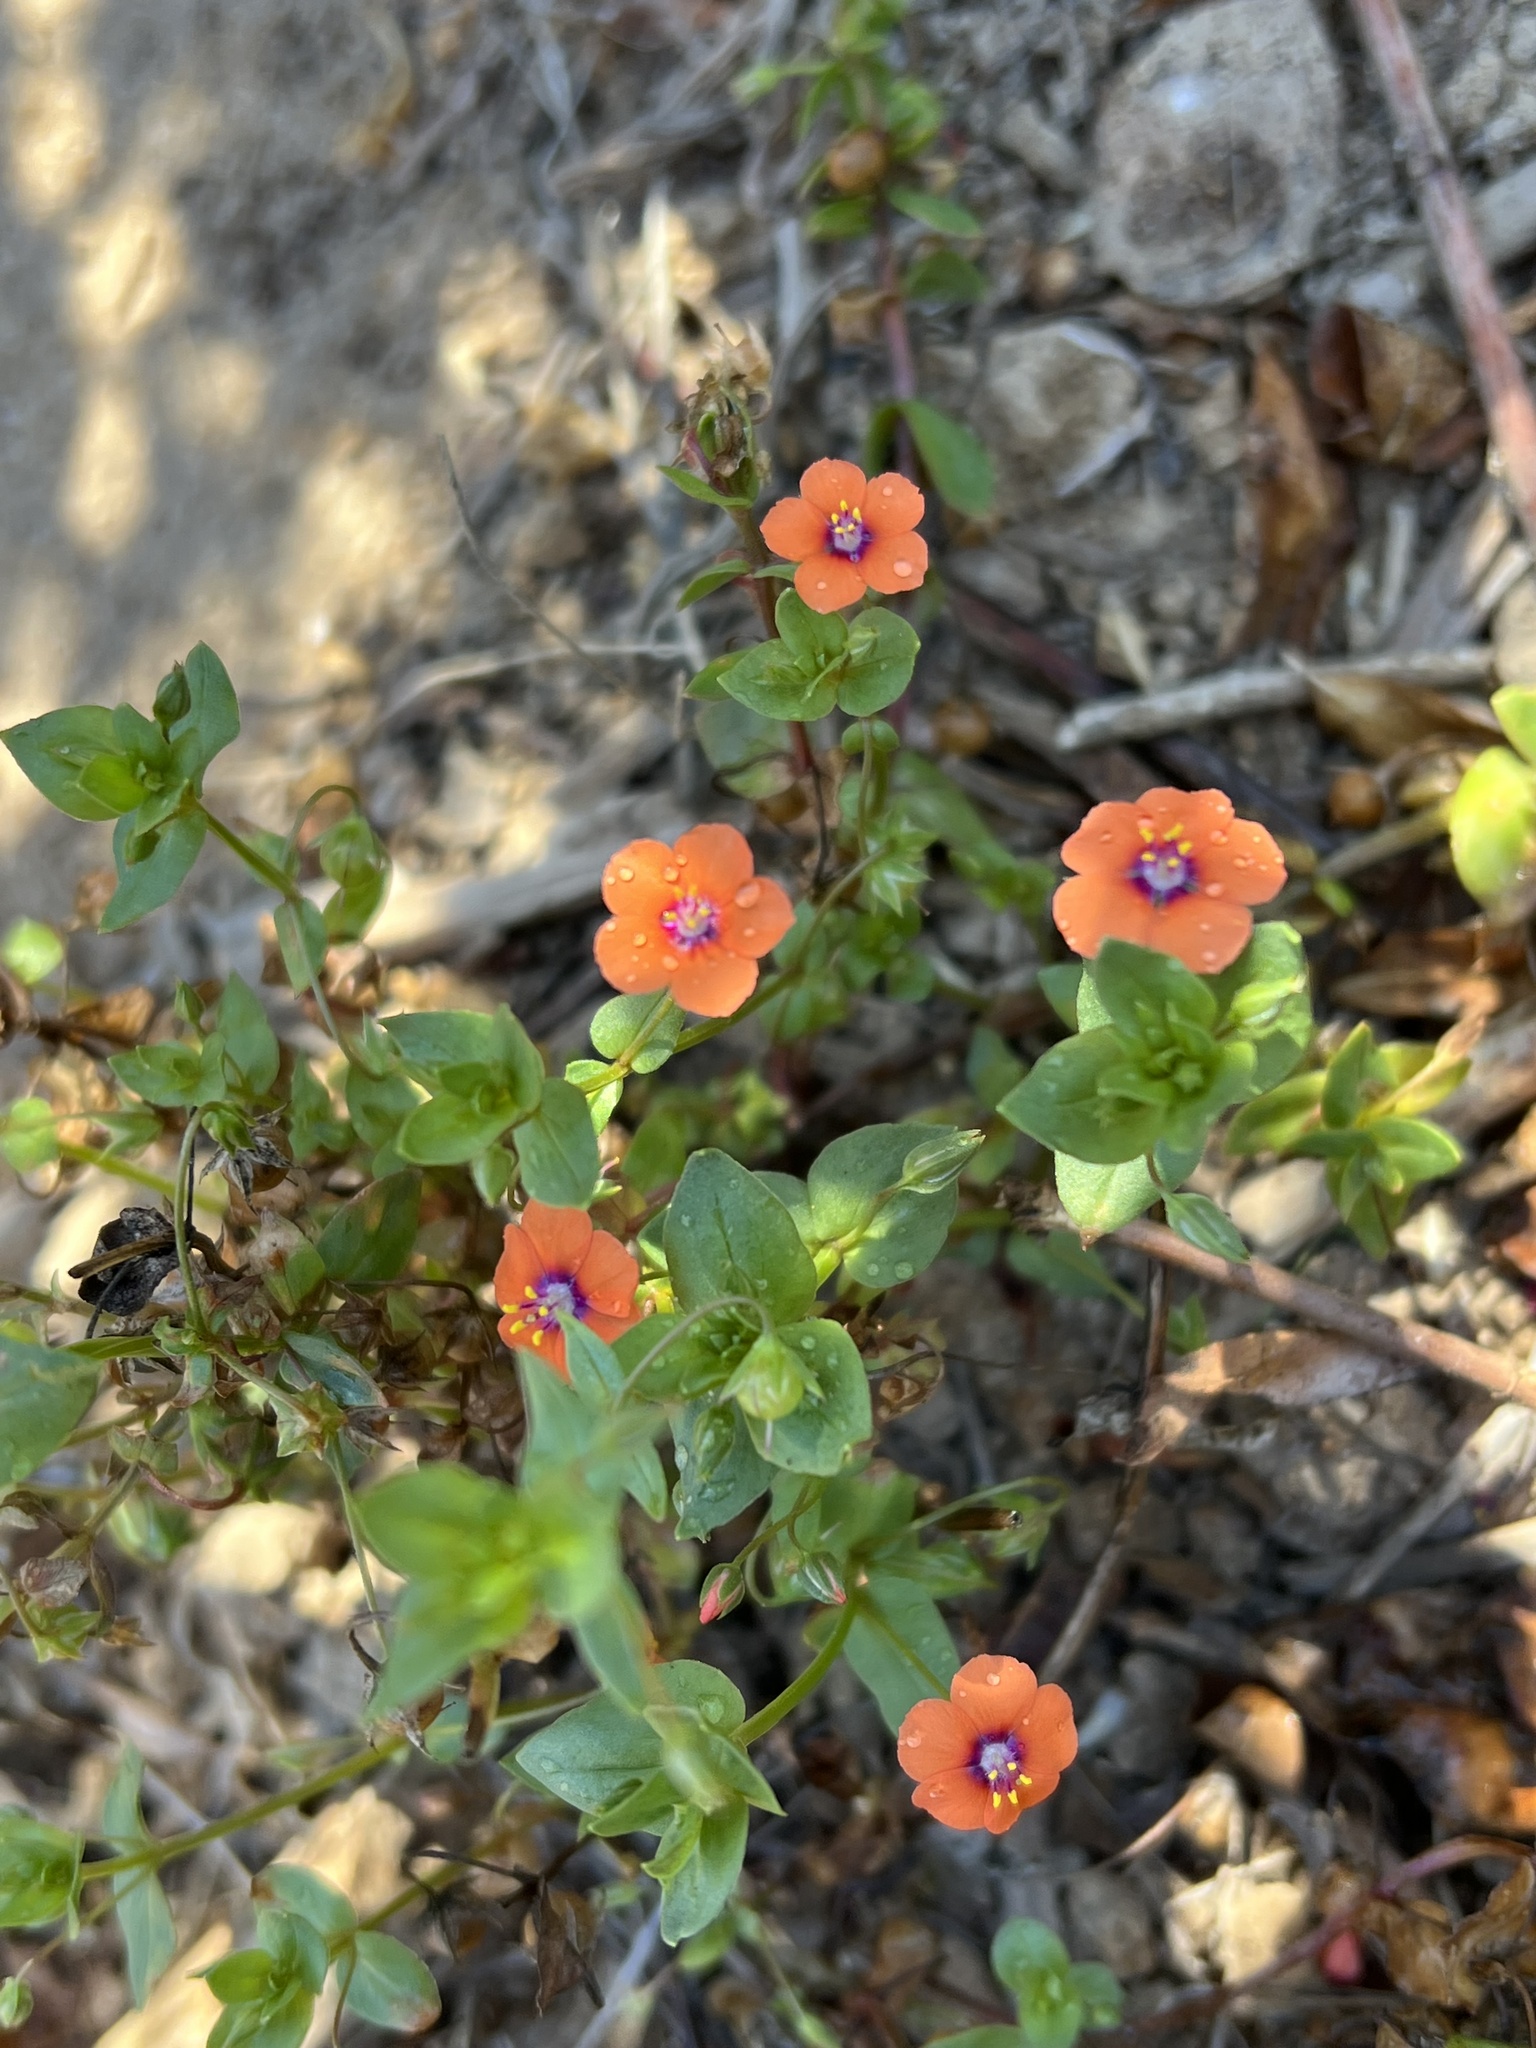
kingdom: Plantae
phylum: Tracheophyta
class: Magnoliopsida
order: Ericales
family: Primulaceae
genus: Lysimachia
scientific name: Lysimachia arvensis
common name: Scarlet pimpernel
